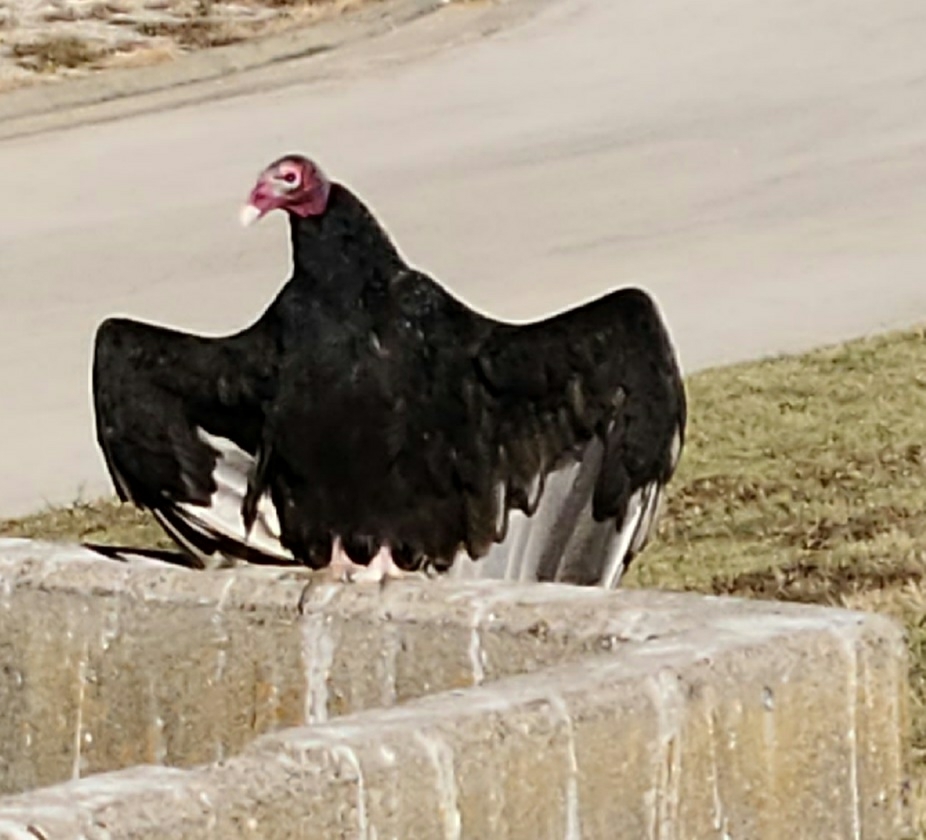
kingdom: Animalia
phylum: Chordata
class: Aves
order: Accipitriformes
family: Cathartidae
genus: Cathartes
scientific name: Cathartes aura
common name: Turkey vulture
